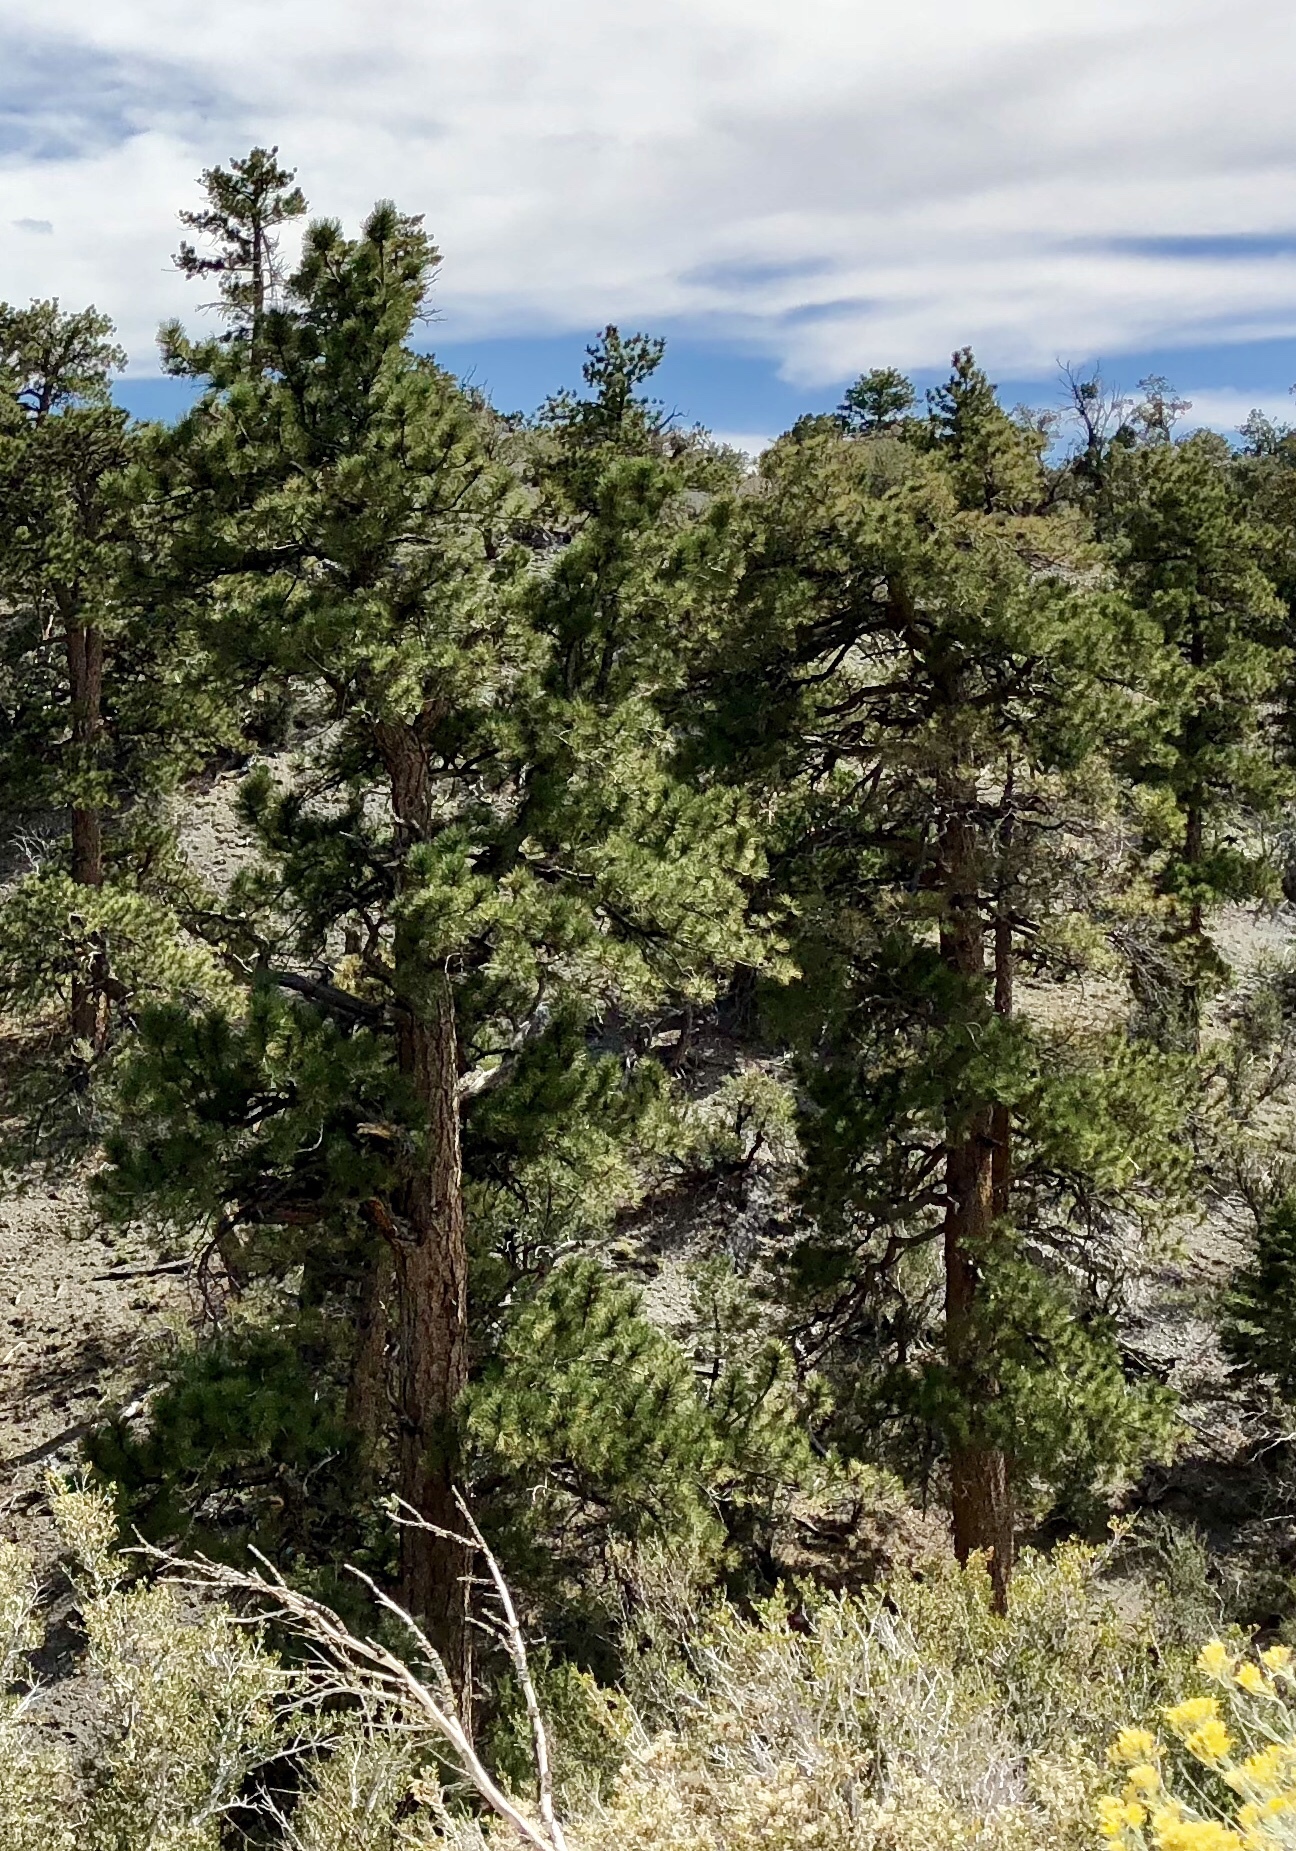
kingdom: Plantae
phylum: Tracheophyta
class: Pinopsida
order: Pinales
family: Pinaceae
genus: Pinus
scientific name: Pinus ponderosa
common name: Western yellow-pine
